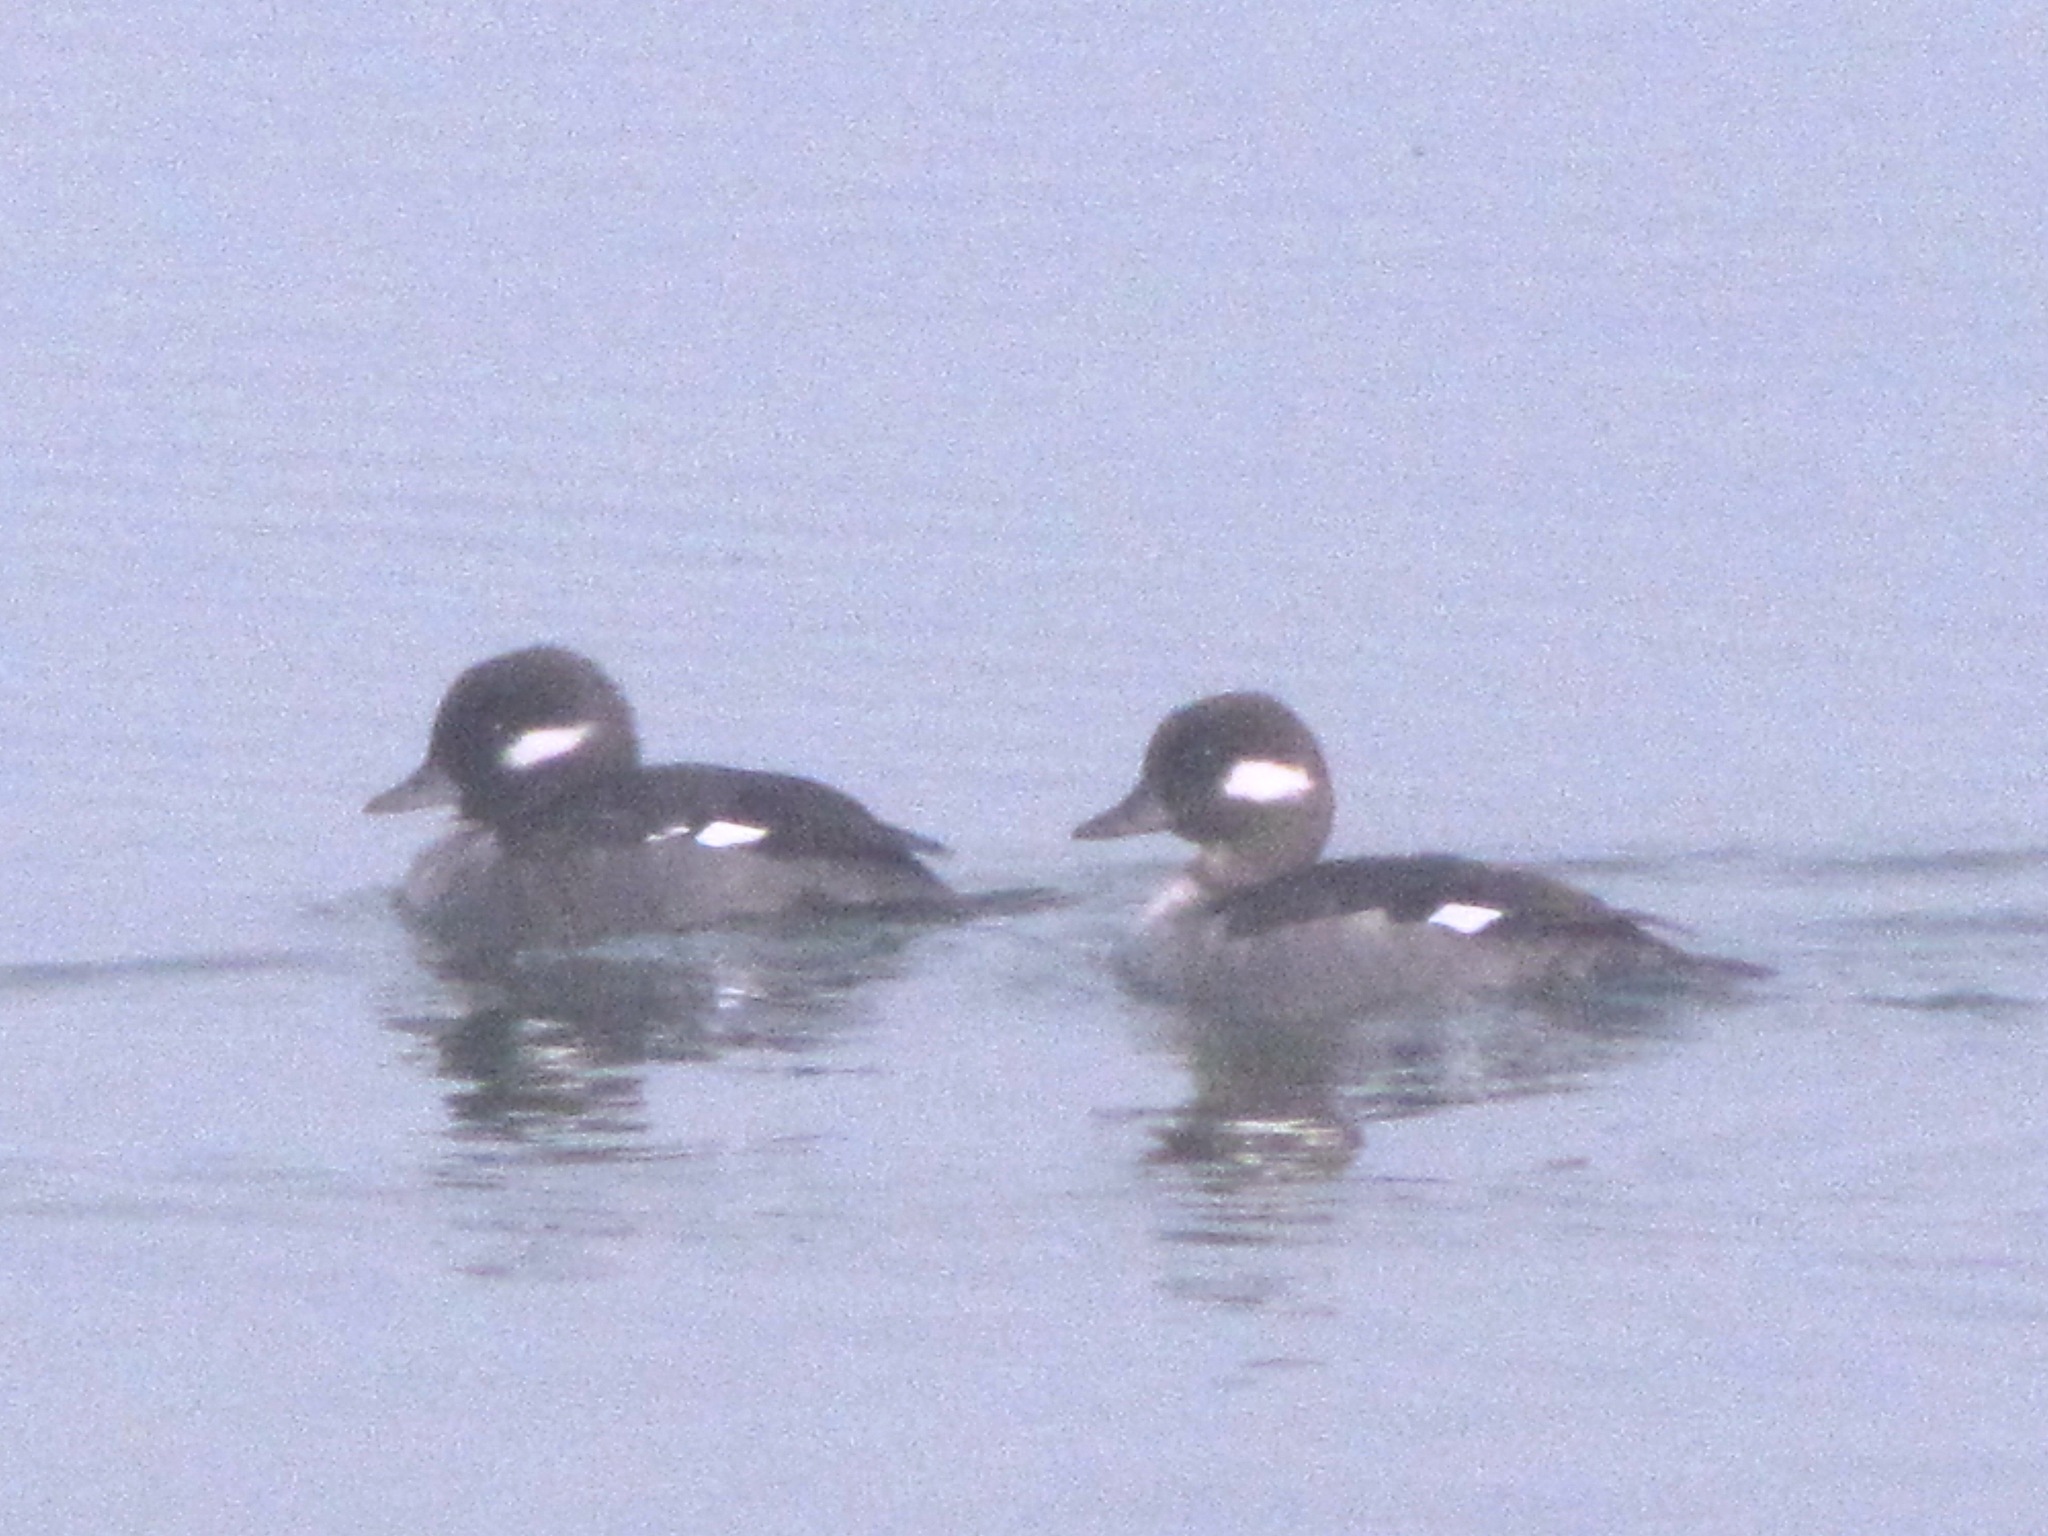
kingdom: Animalia
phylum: Chordata
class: Aves
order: Anseriformes
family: Anatidae
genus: Bucephala
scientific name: Bucephala albeola
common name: Bufflehead
